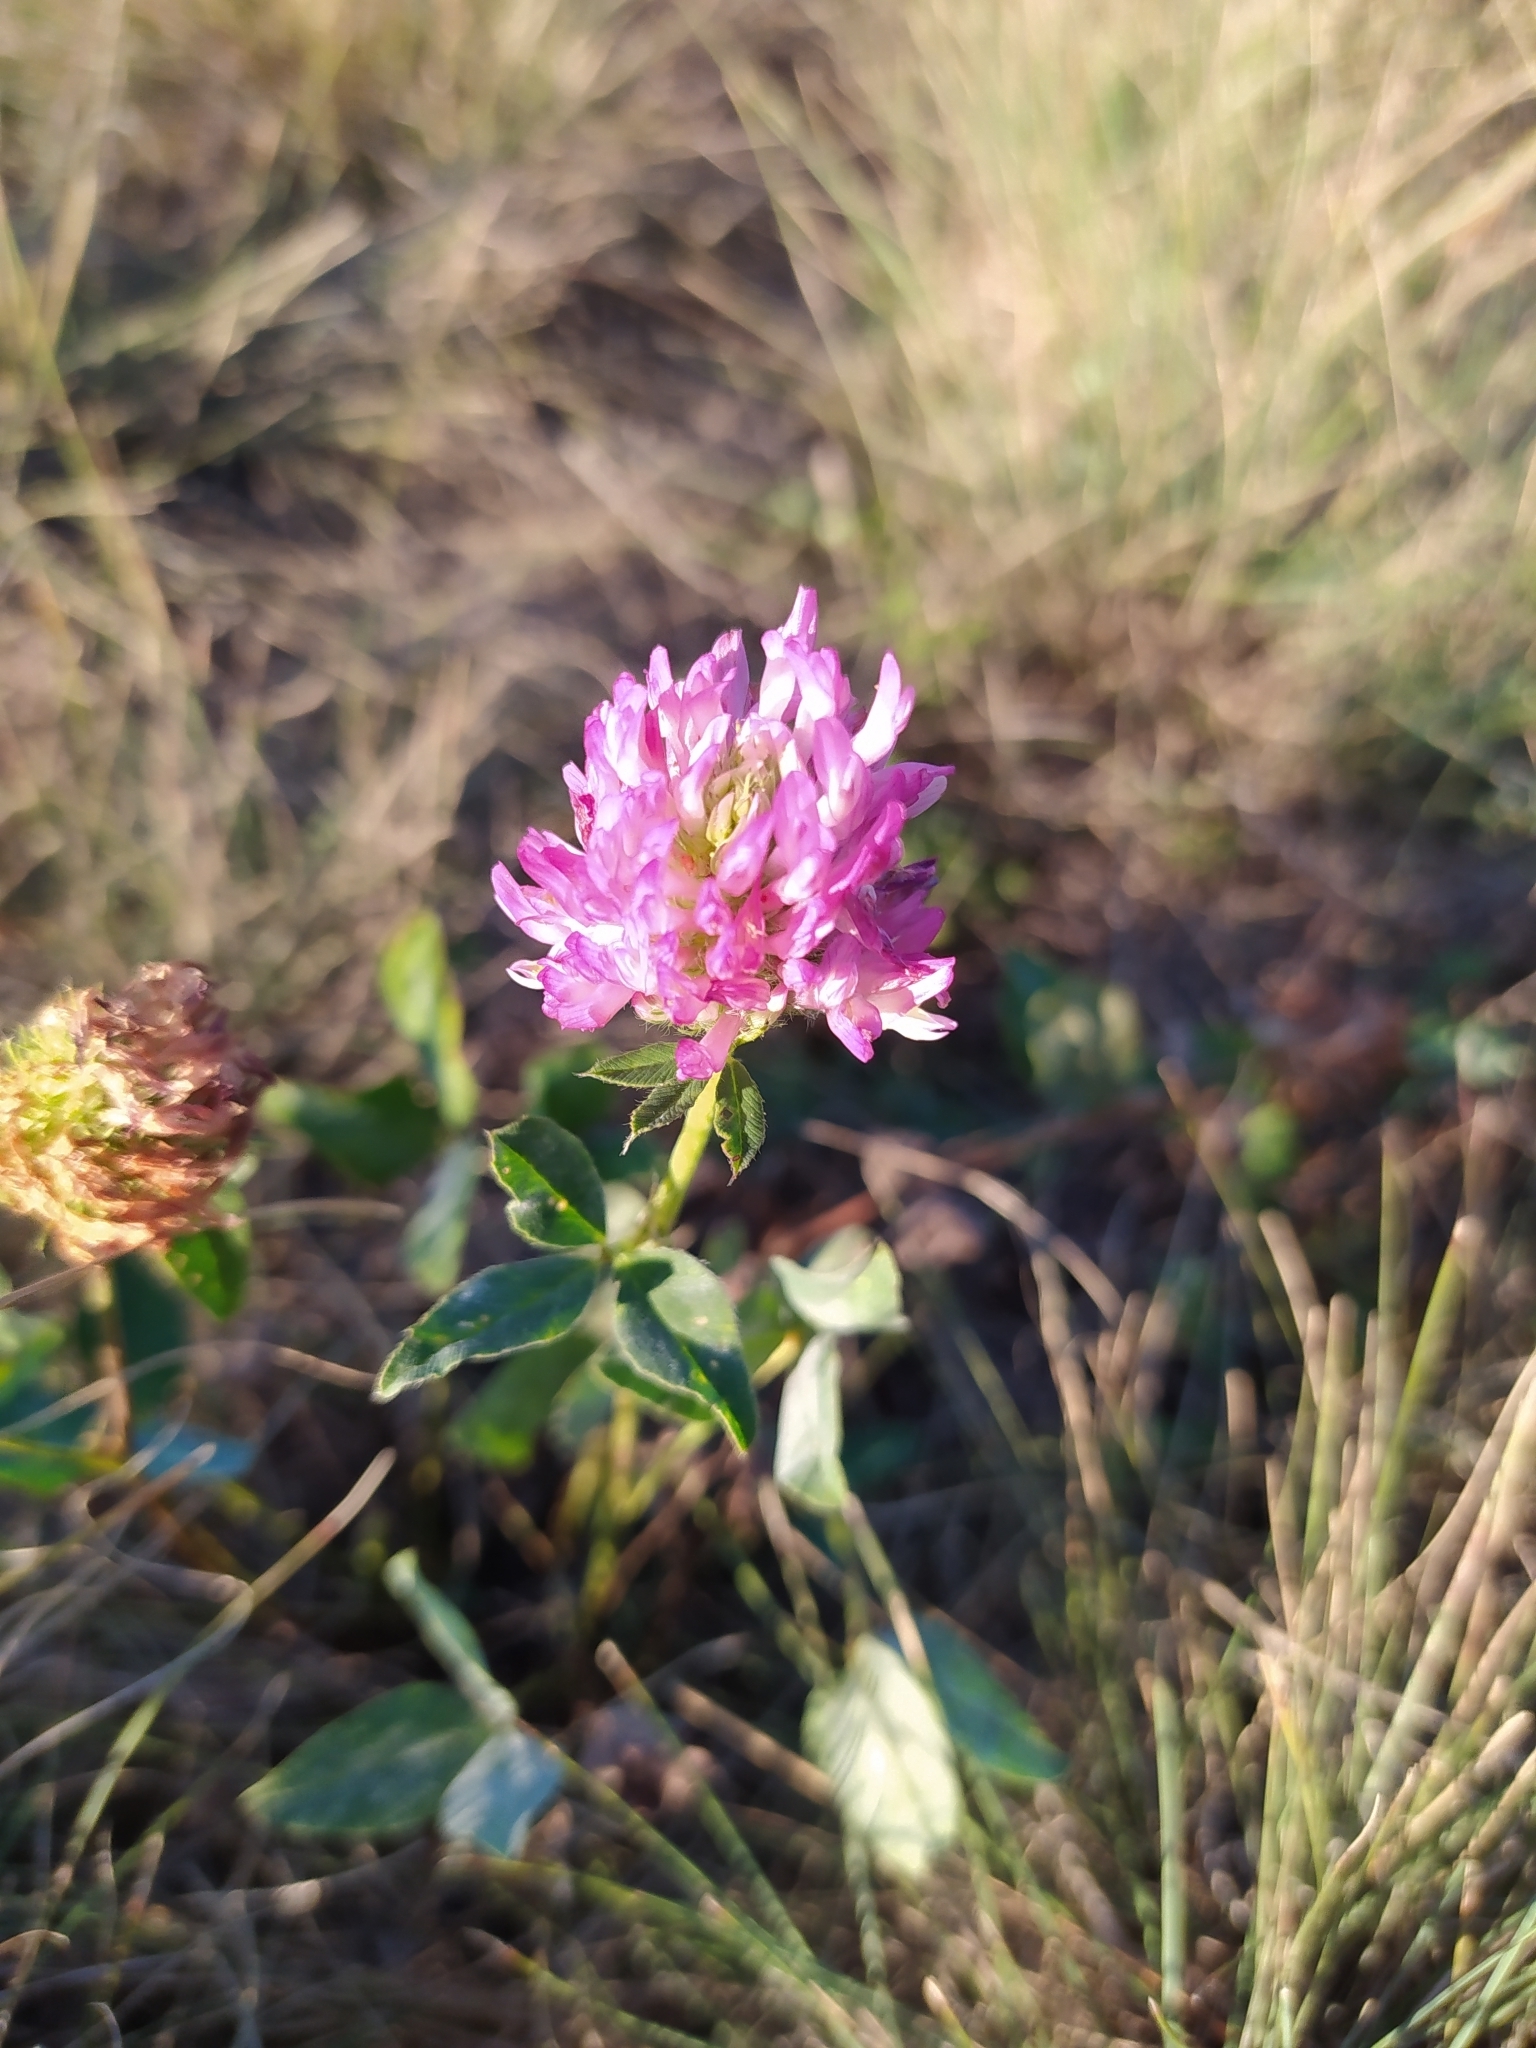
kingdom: Plantae
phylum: Tracheophyta
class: Magnoliopsida
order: Fabales
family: Fabaceae
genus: Trifolium
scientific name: Trifolium pratense
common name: Red clover
